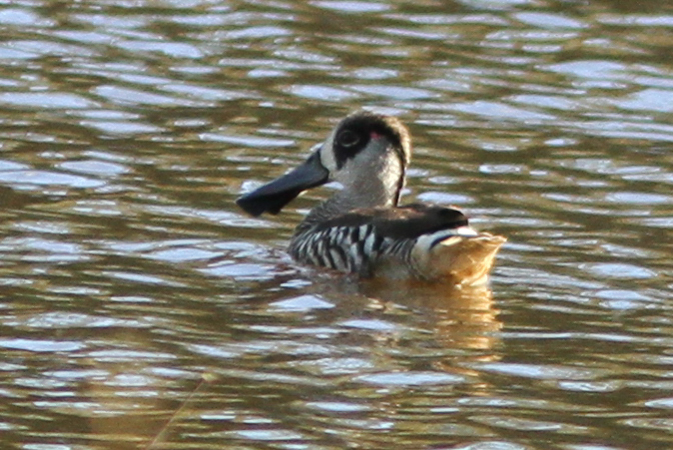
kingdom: Animalia
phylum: Chordata
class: Aves
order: Anseriformes
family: Anatidae
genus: Malacorhynchus
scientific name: Malacorhynchus membranaceus
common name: Pink-eared duck
